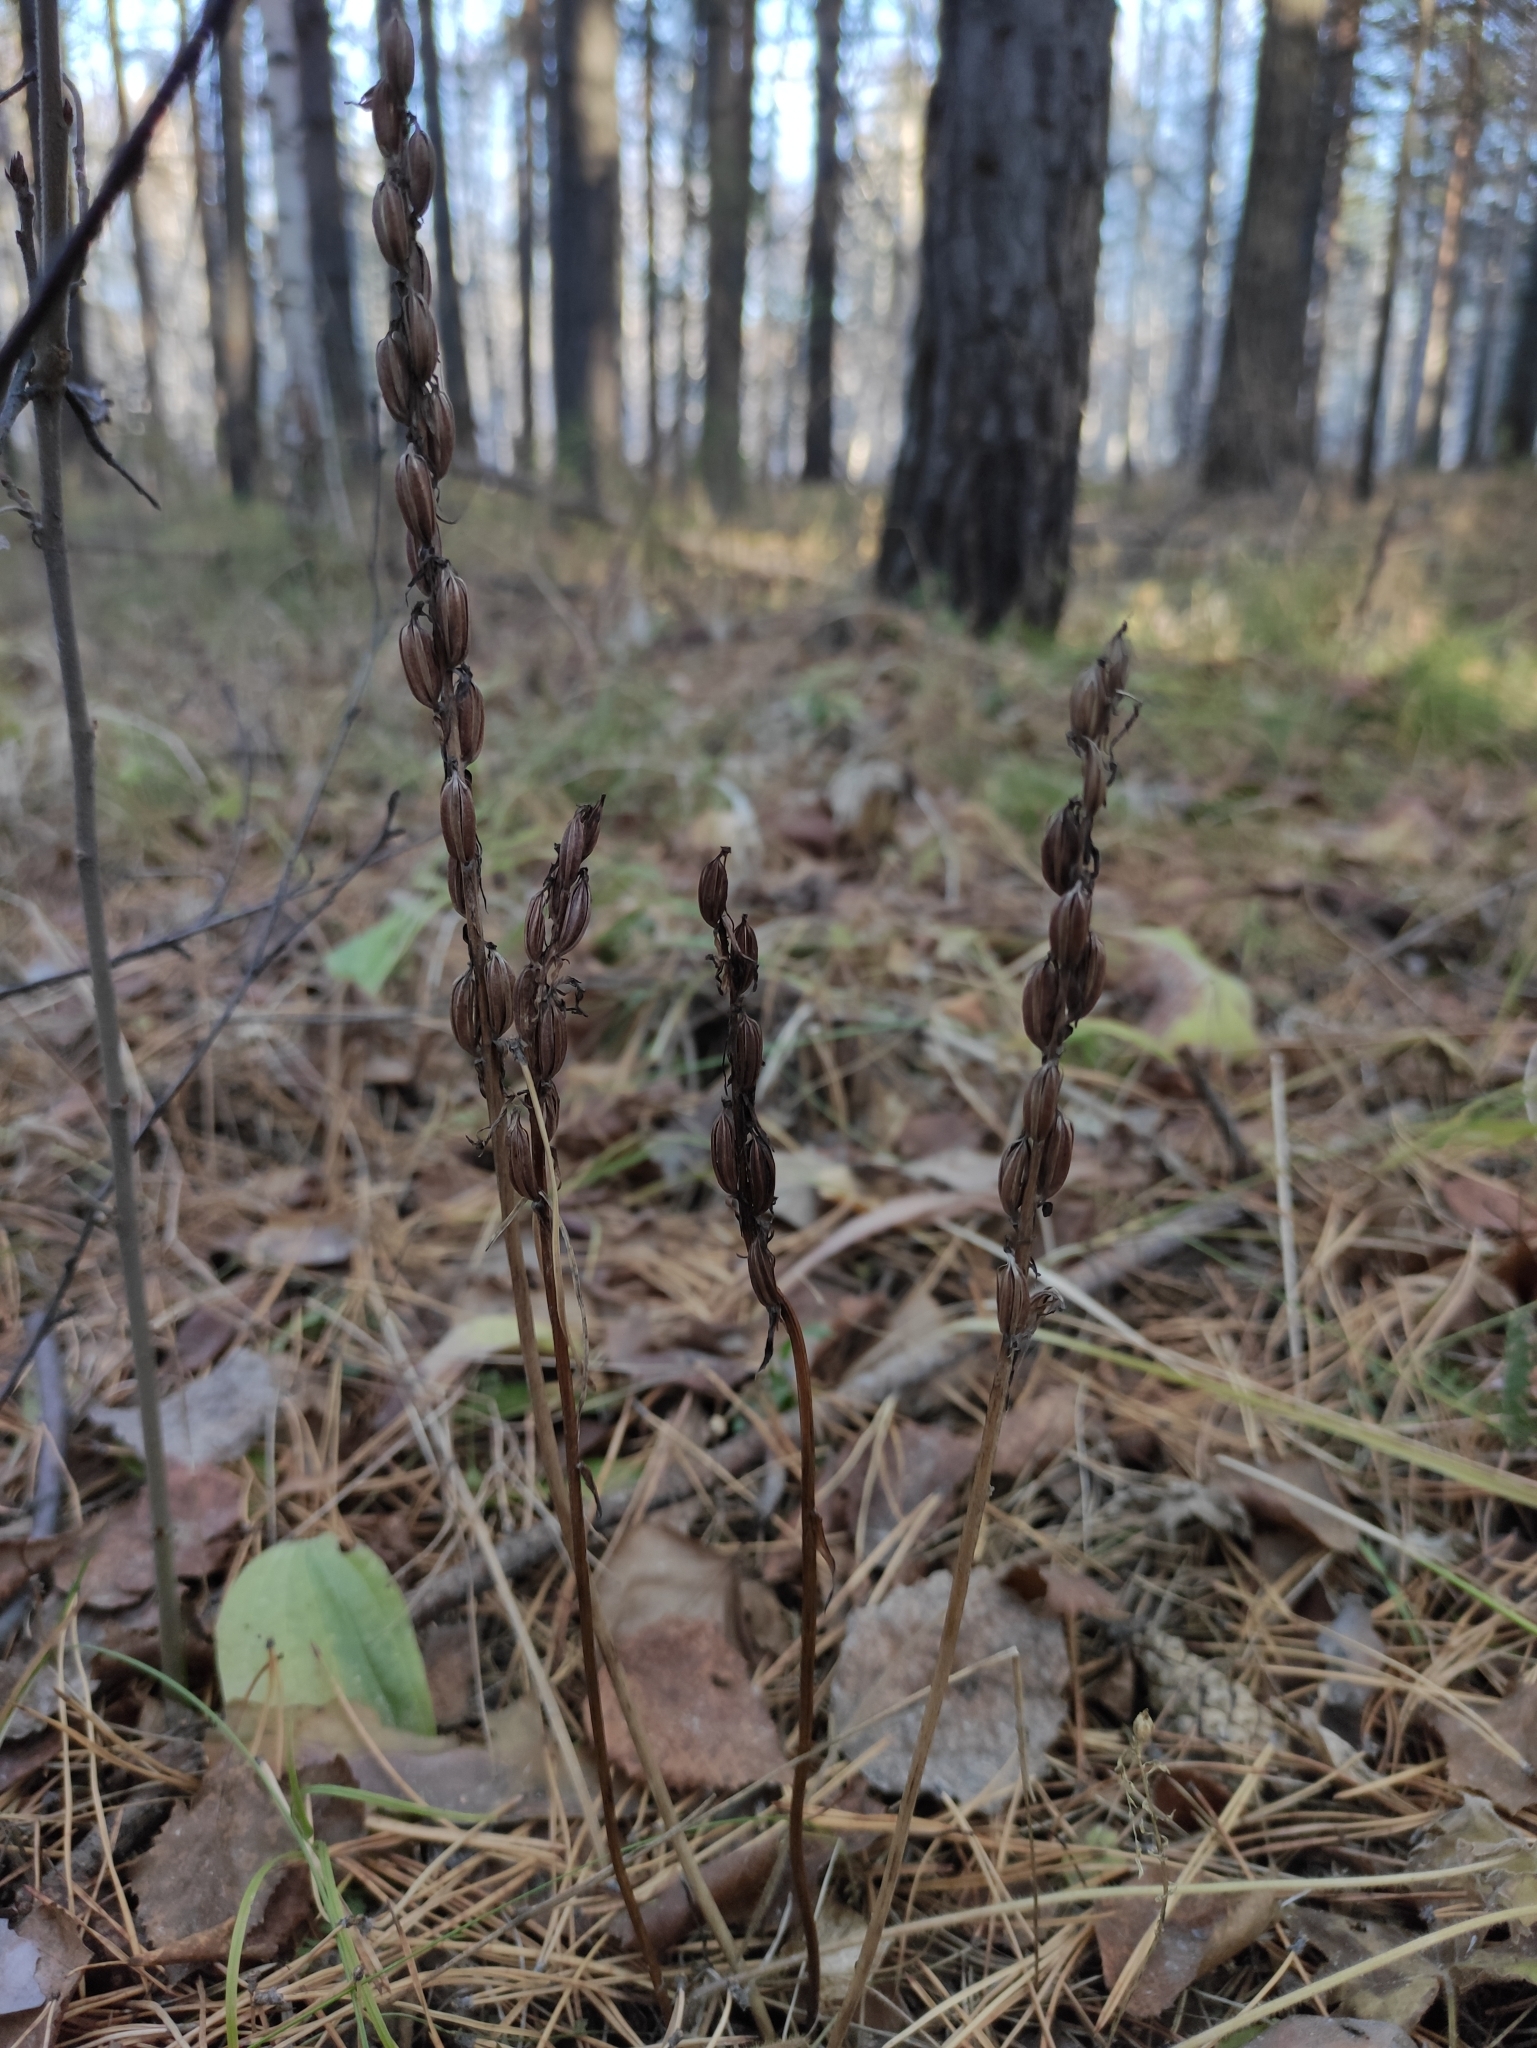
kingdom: Plantae
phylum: Tracheophyta
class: Liliopsida
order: Asparagales
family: Orchidaceae
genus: Platanthera
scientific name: Platanthera bifolia
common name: Lesser butterfly-orchid
